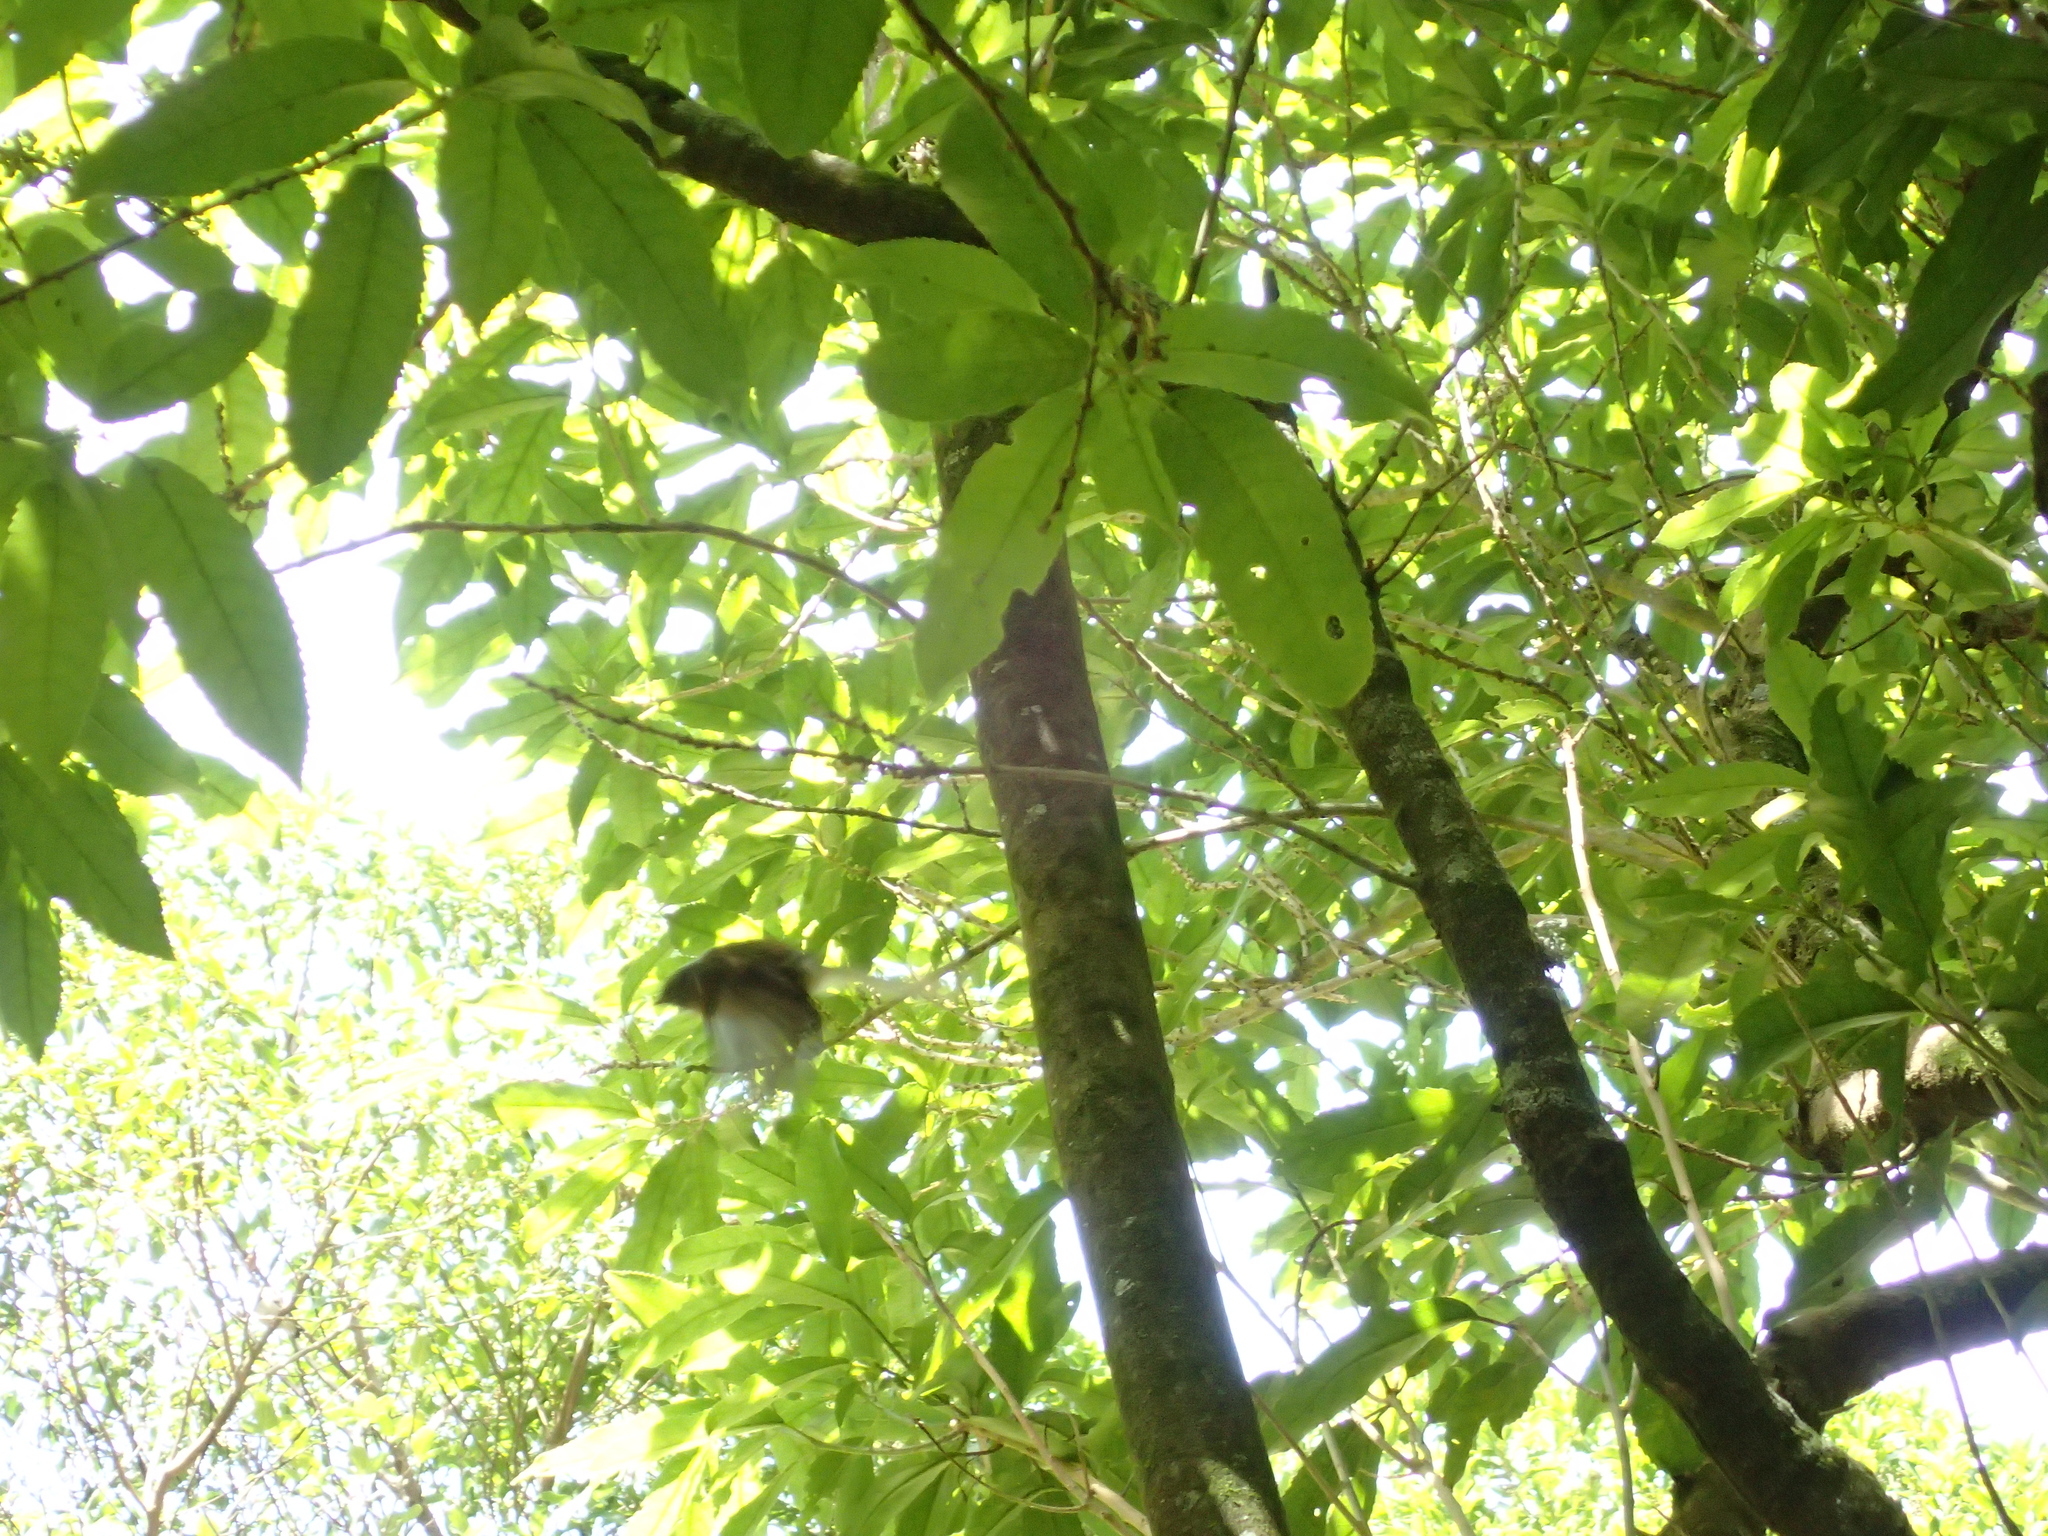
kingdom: Animalia
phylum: Chordata
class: Aves
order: Passeriformes
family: Rhipiduridae
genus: Rhipidura
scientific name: Rhipidura fuliginosa
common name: New zealand fantail
